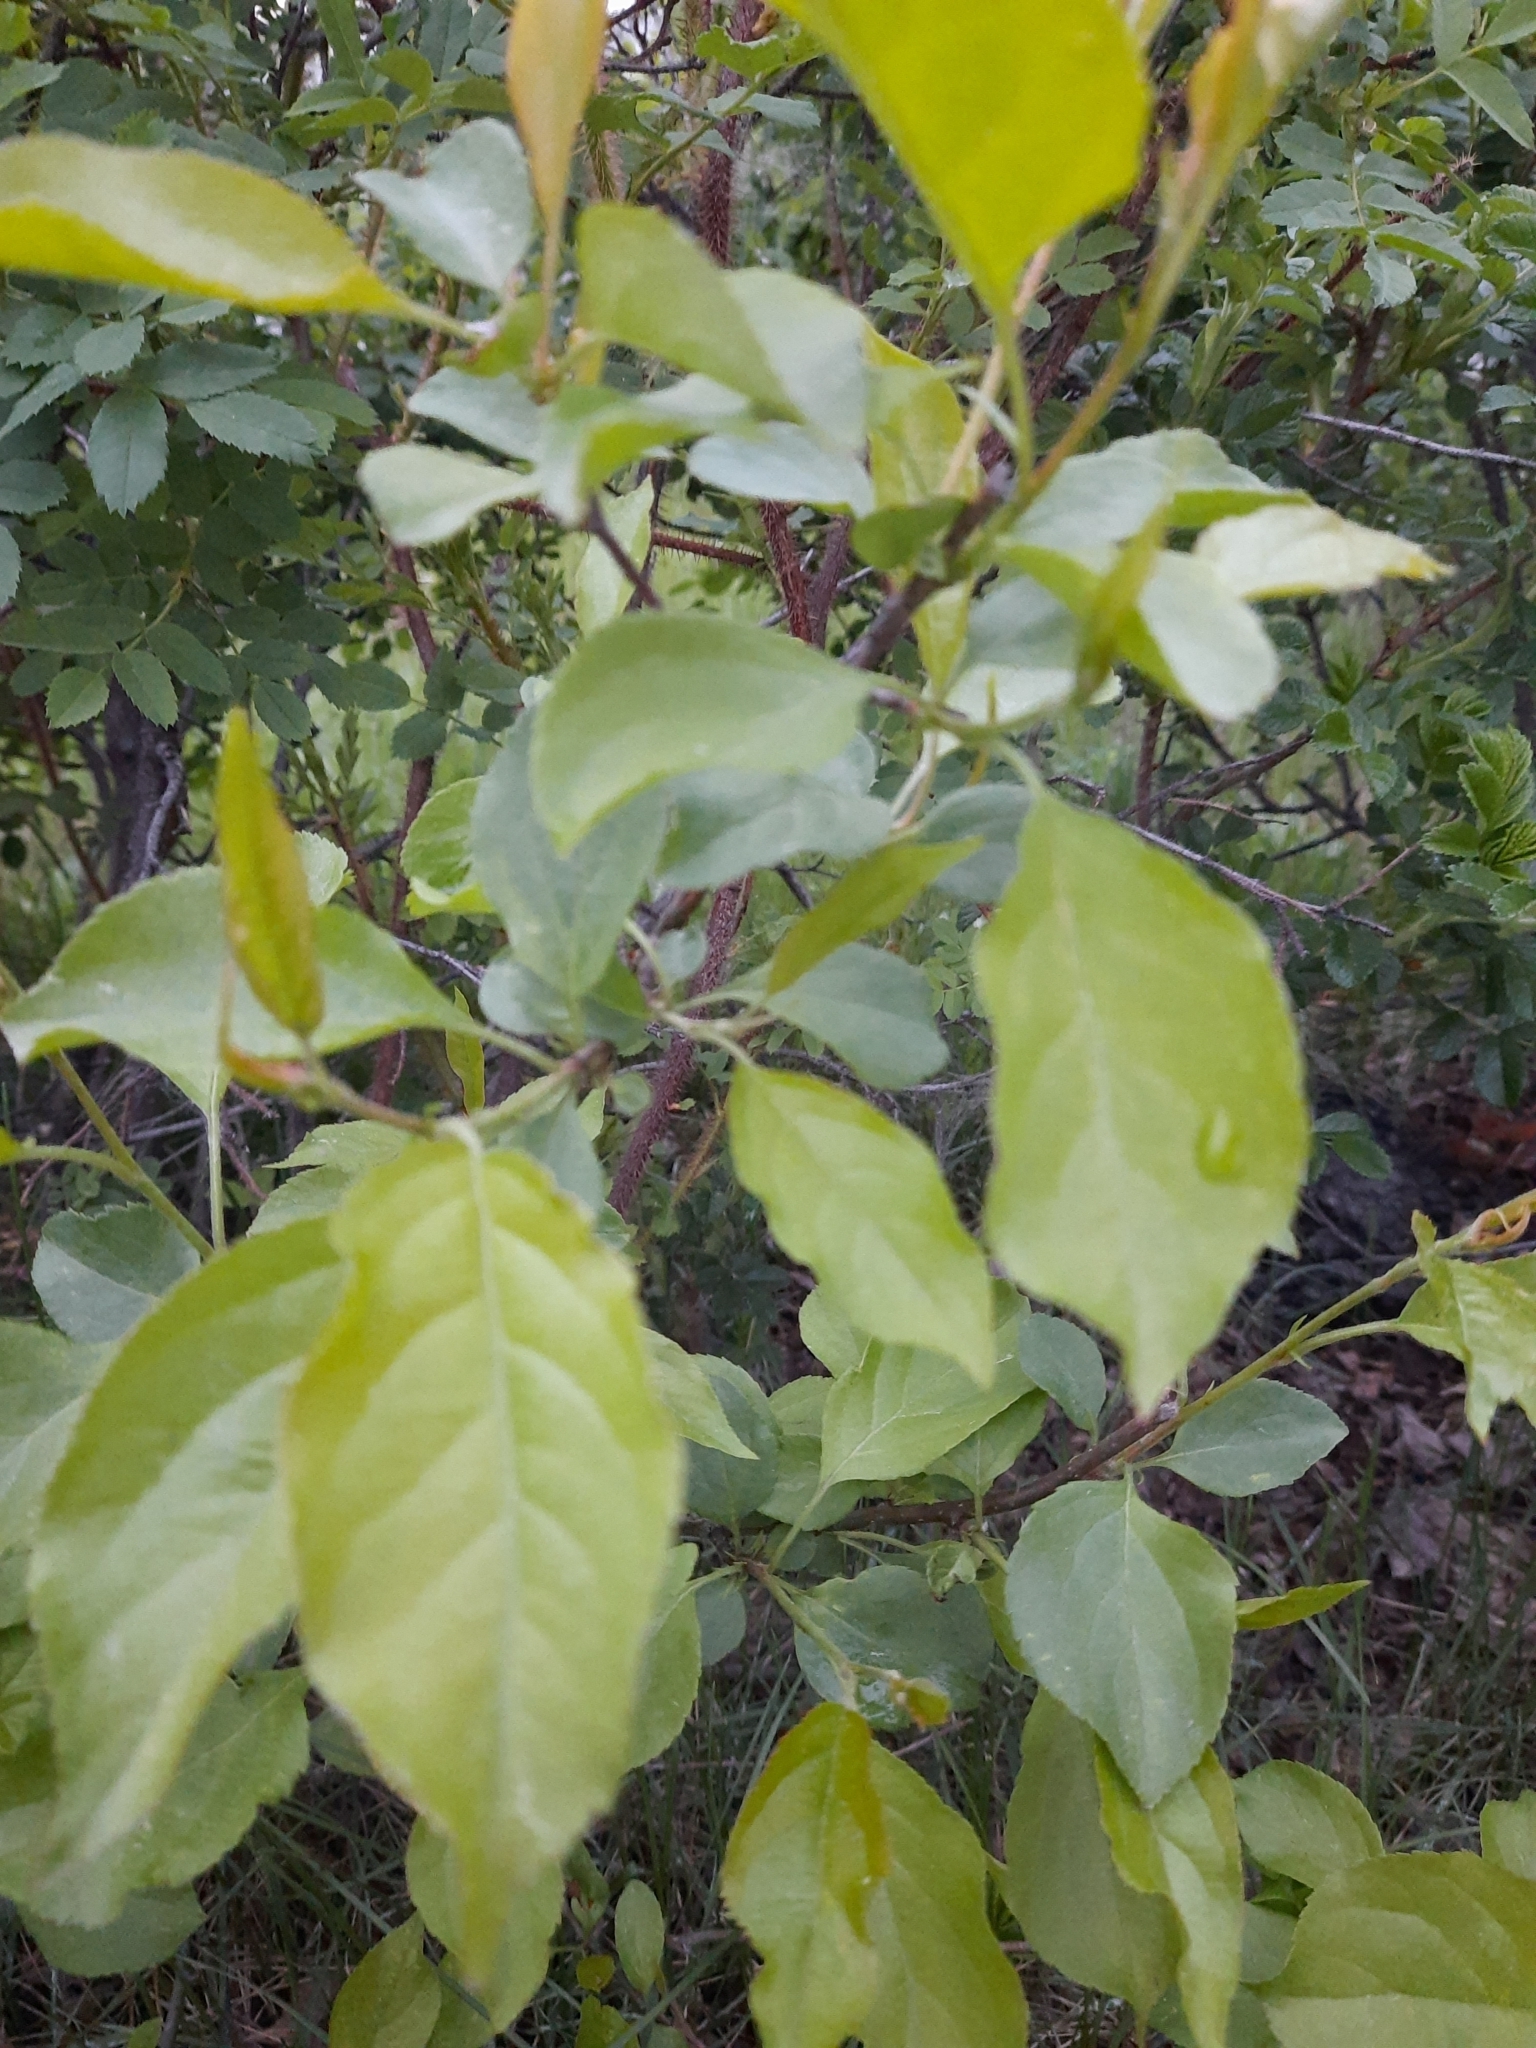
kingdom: Plantae
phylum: Tracheophyta
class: Magnoliopsida
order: Rosales
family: Rosaceae
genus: Malus
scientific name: Malus baccata
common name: Siberian crab
